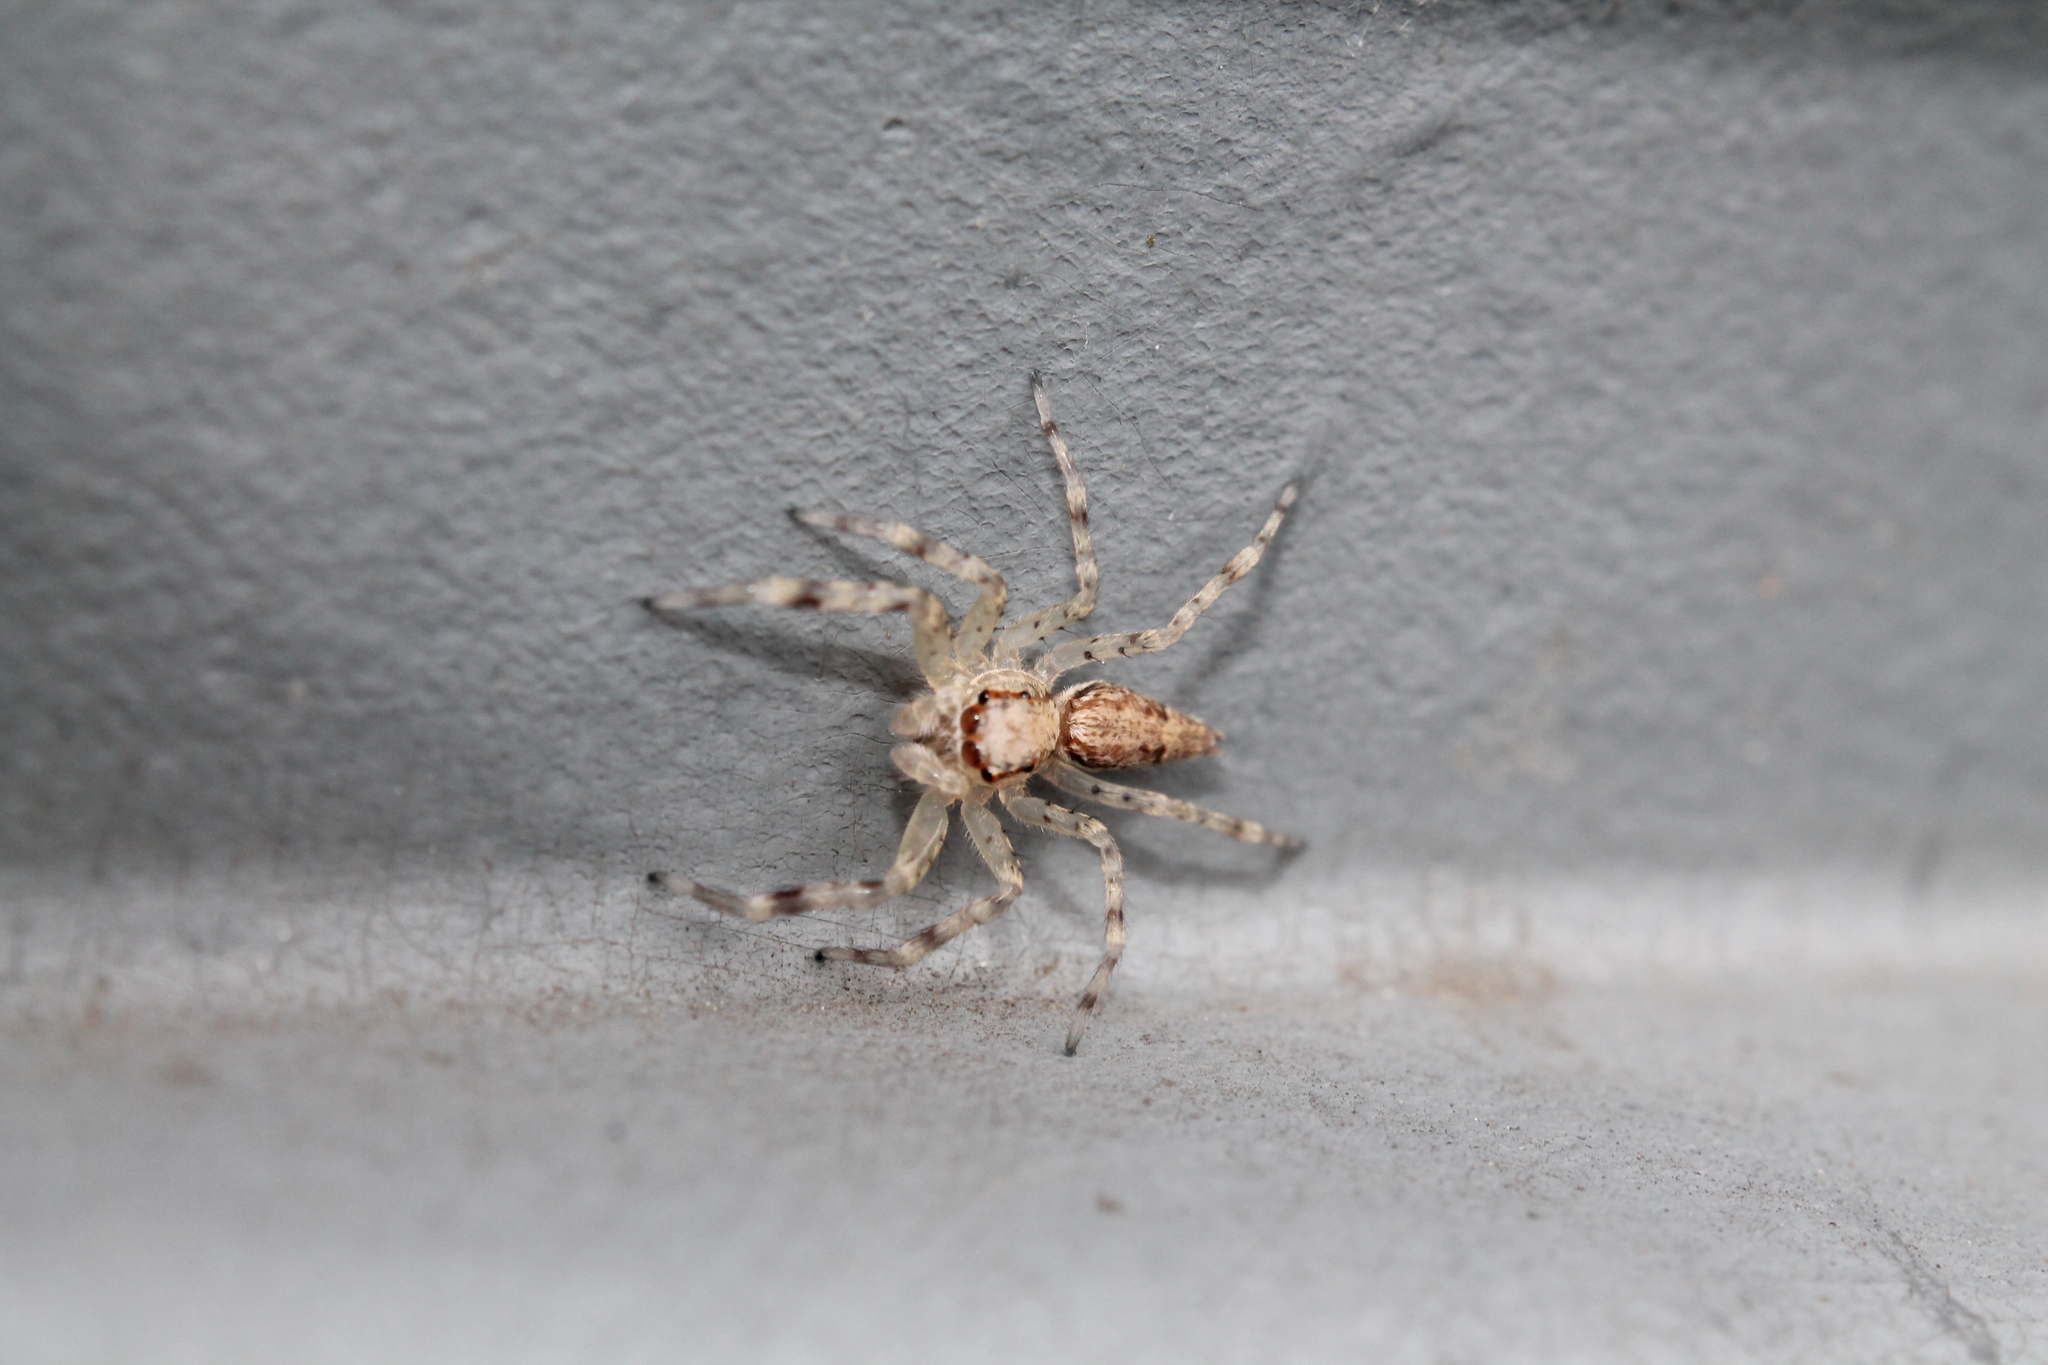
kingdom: Animalia
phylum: Arthropoda
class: Arachnida
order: Araneae
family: Salticidae
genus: Helpis
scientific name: Helpis minitabunda
